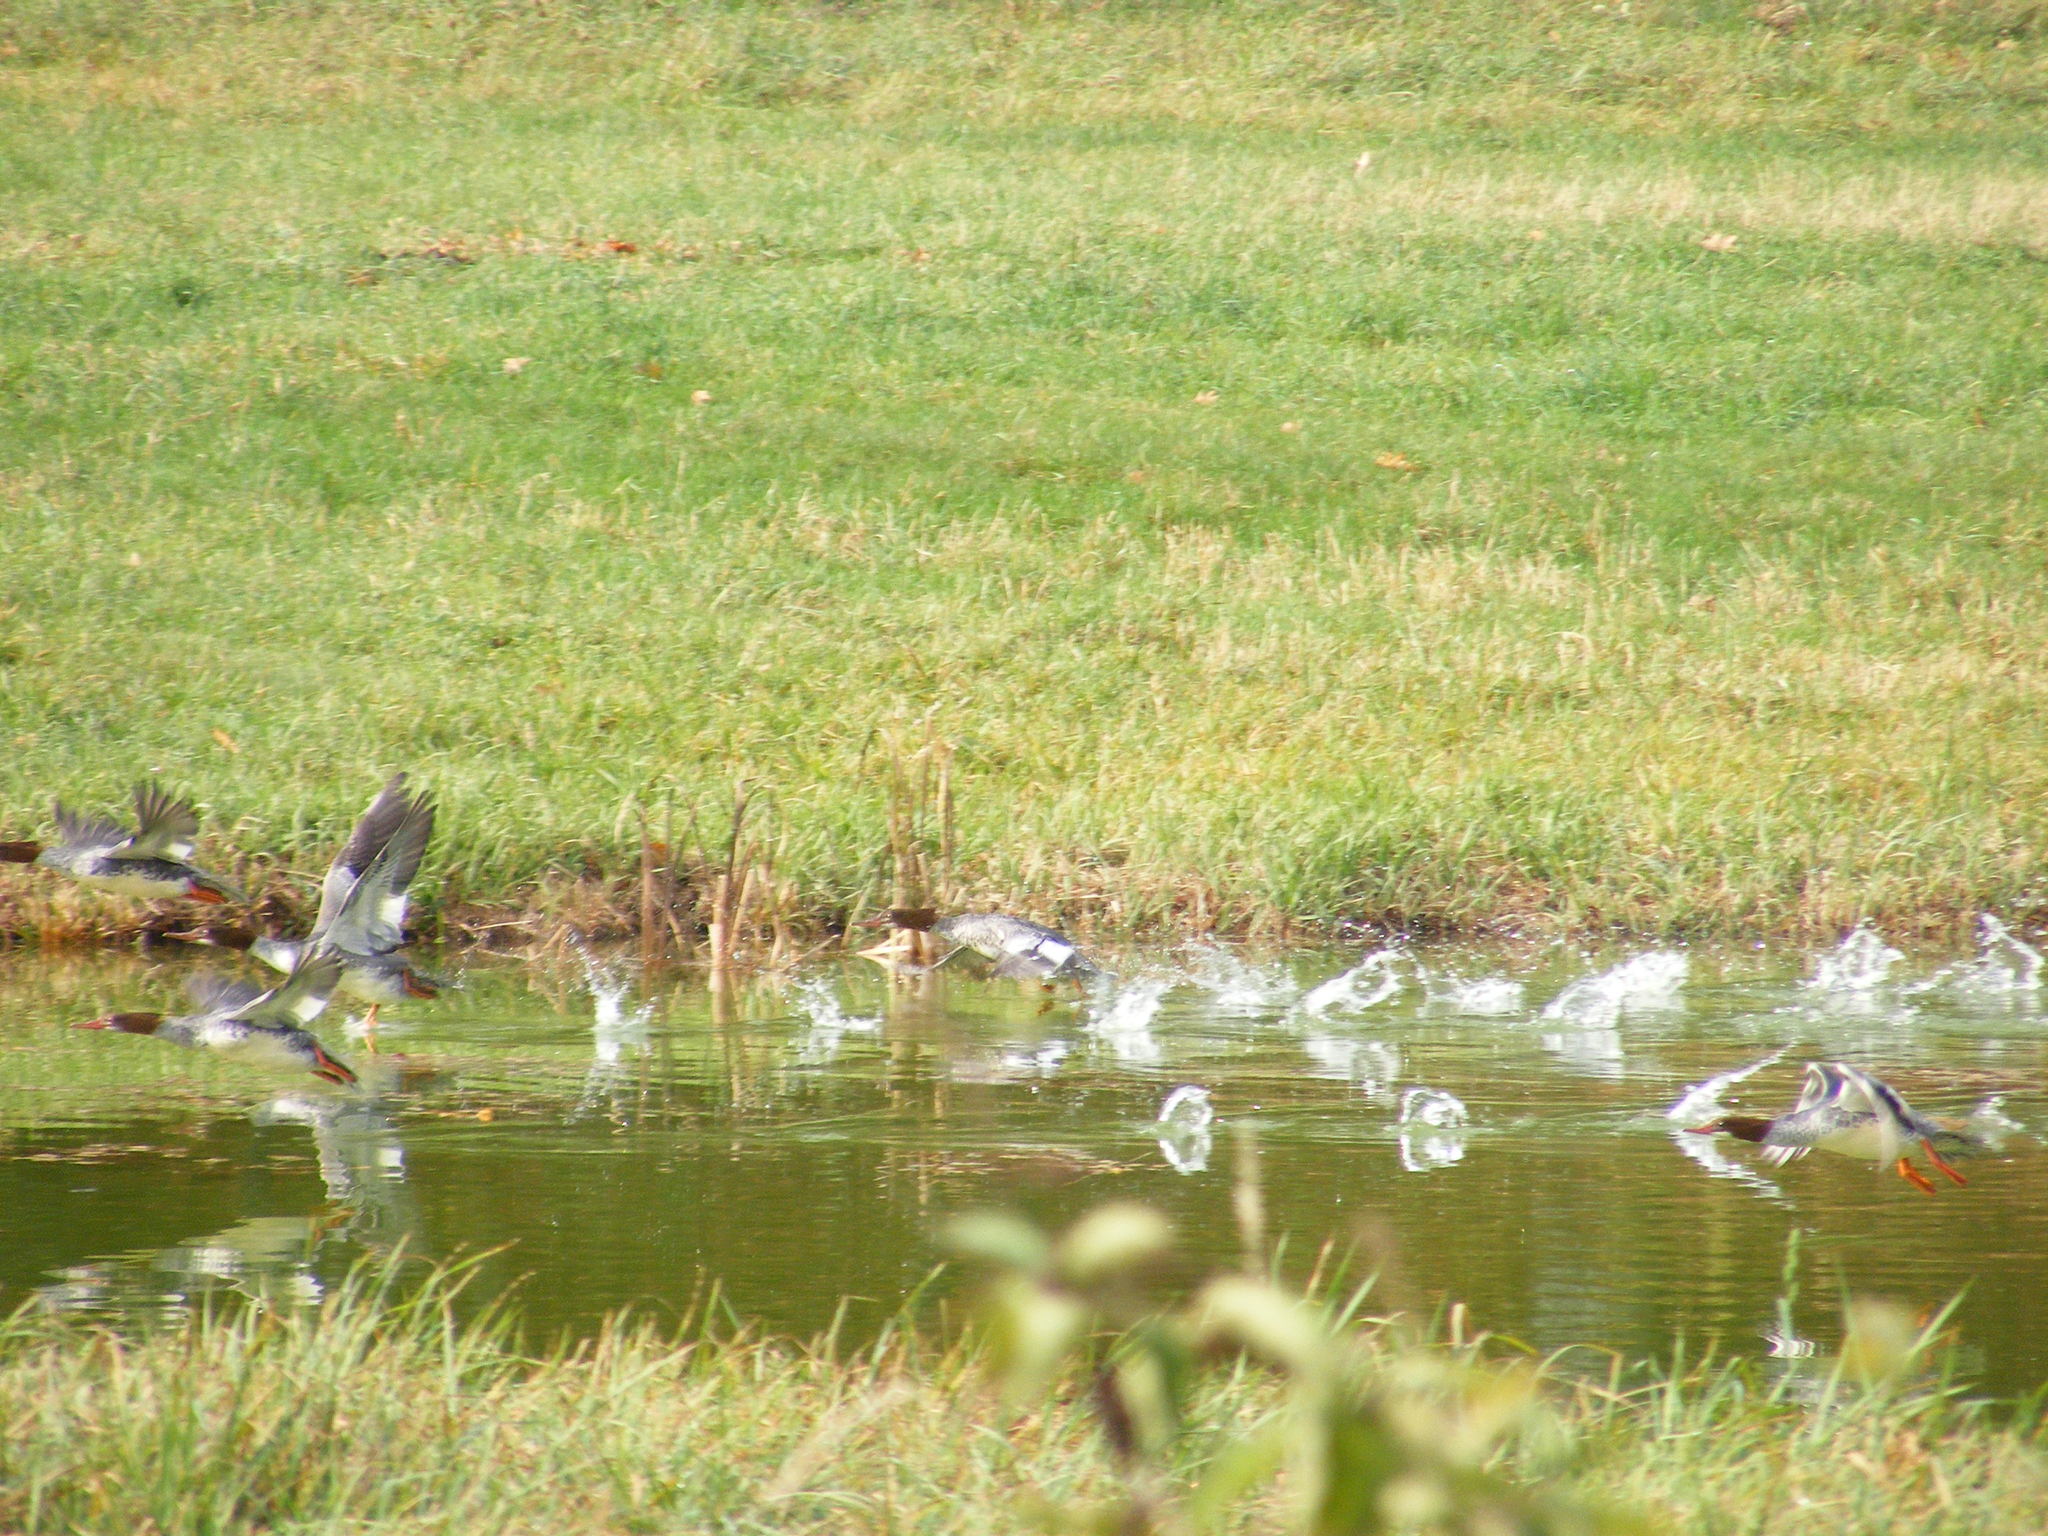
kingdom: Animalia
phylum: Chordata
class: Aves
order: Anseriformes
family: Anatidae
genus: Mergus
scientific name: Mergus merganser
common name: Common merganser
